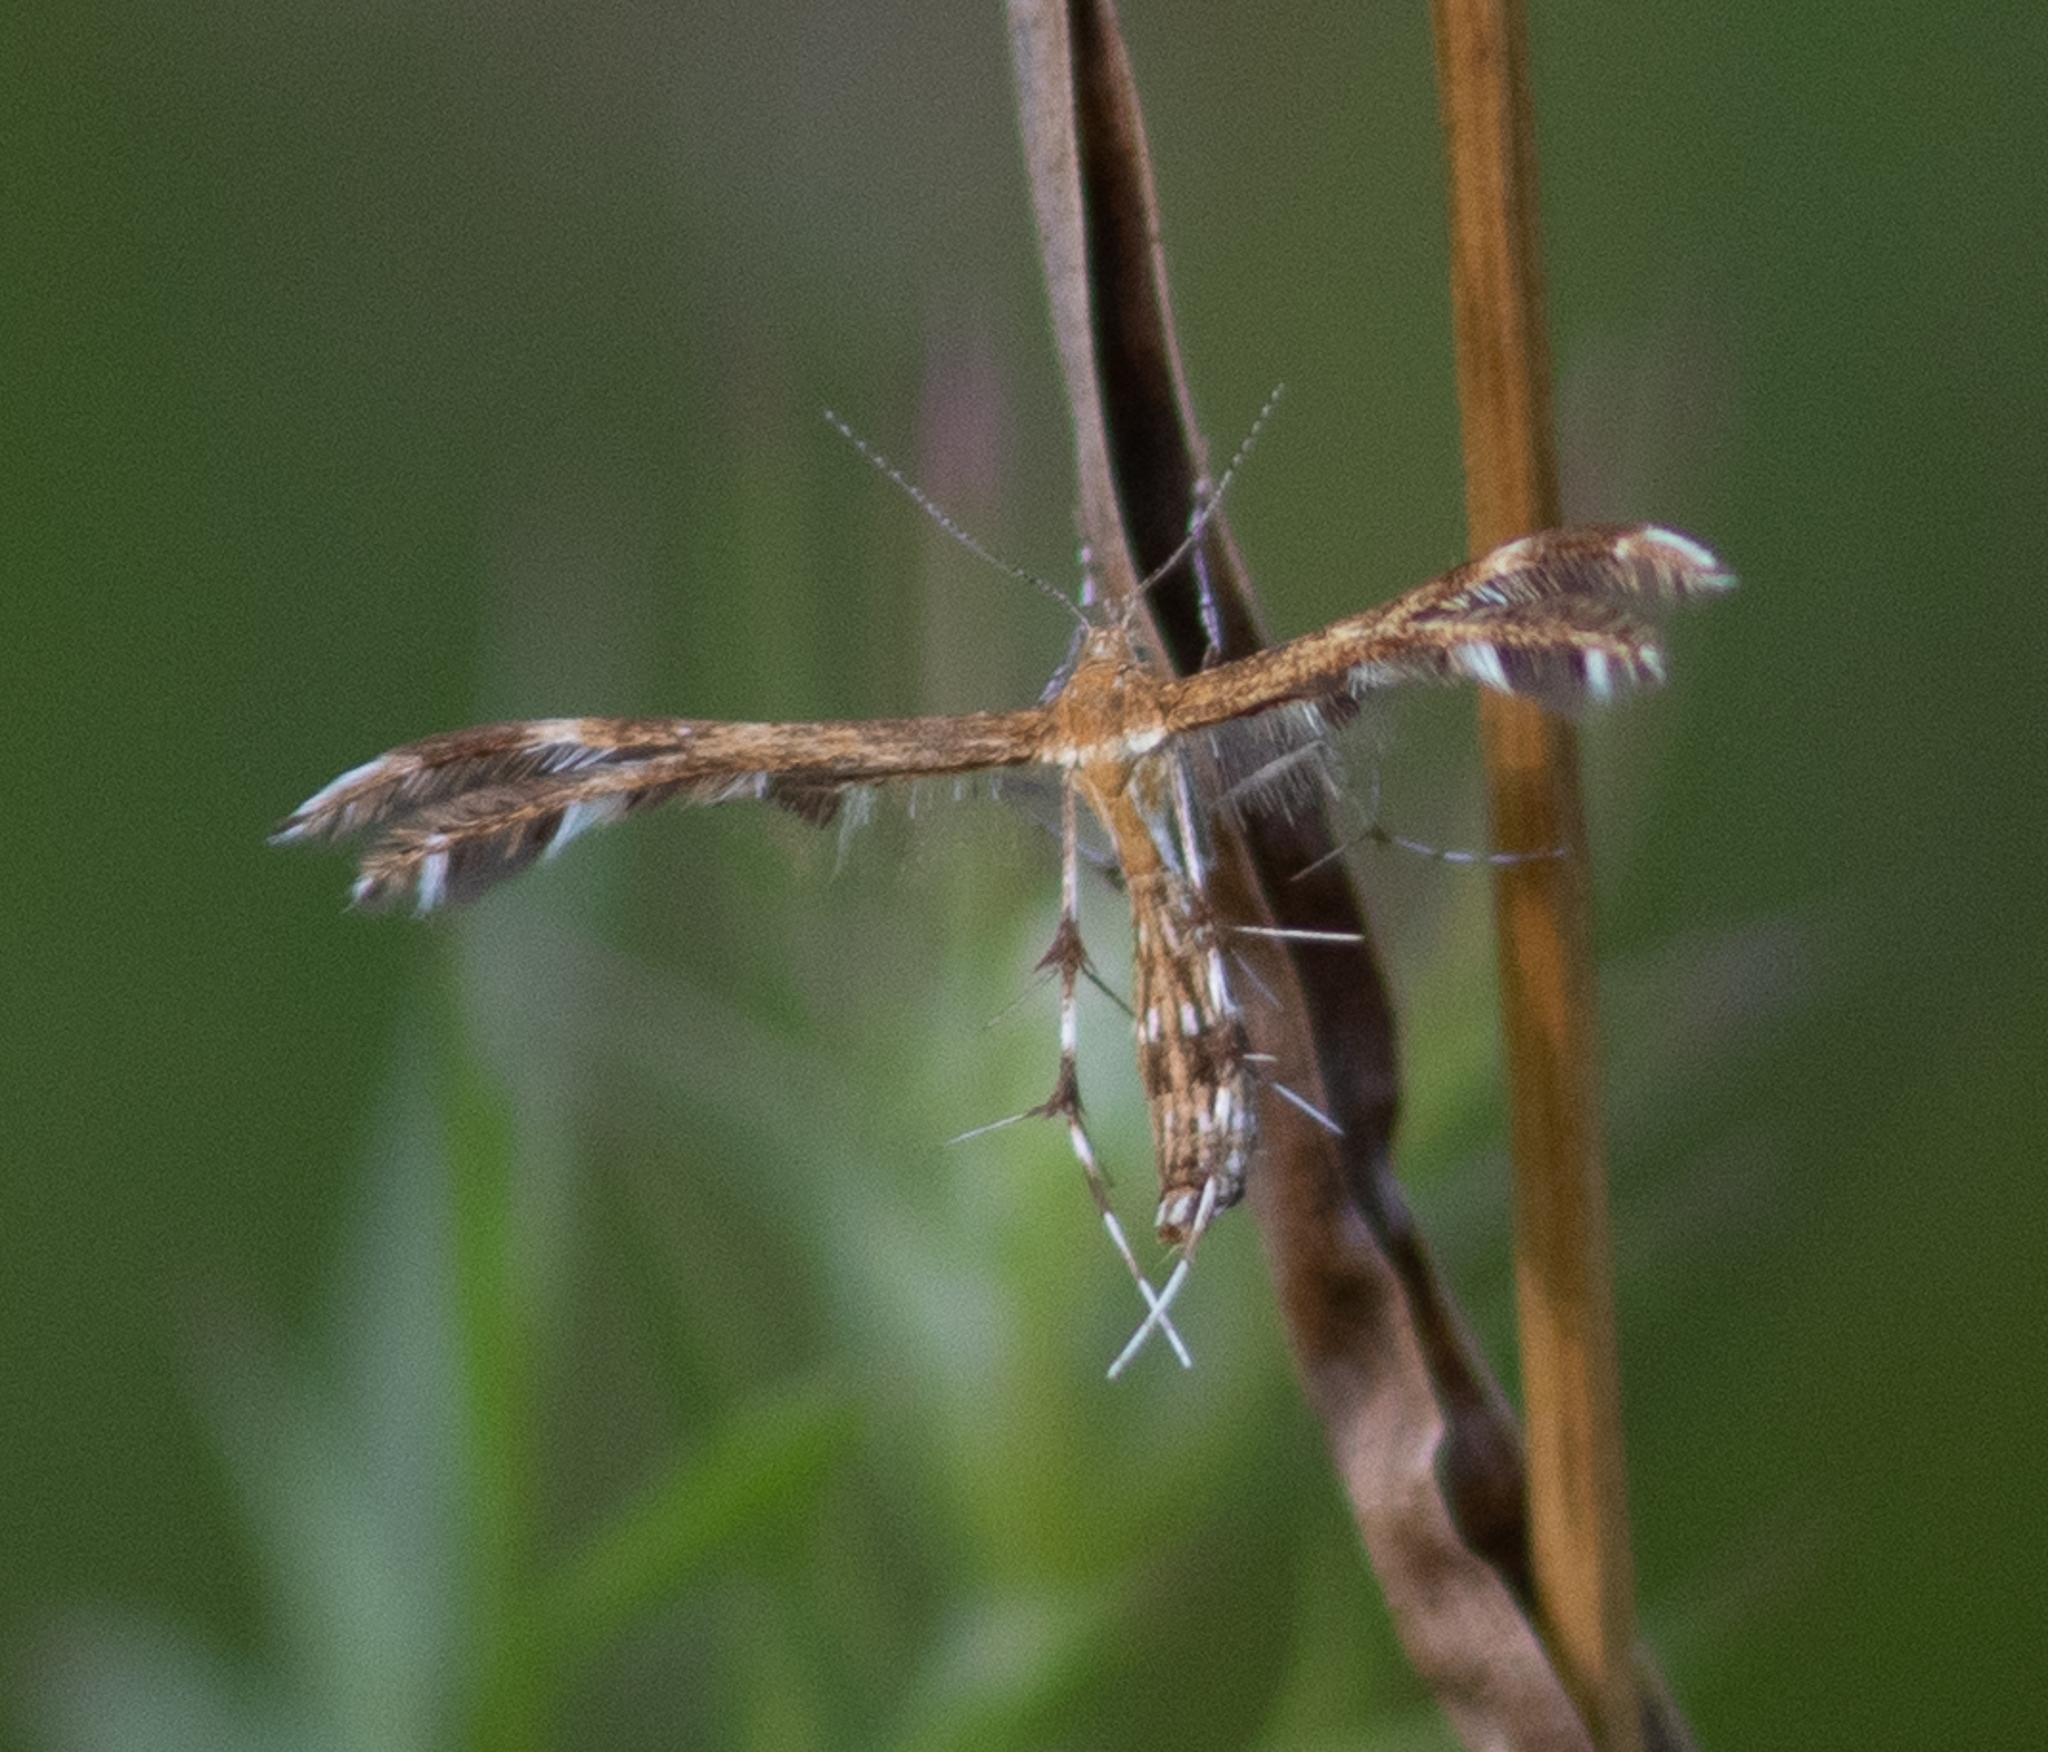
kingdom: Animalia
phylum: Arthropoda
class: Insecta
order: Lepidoptera
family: Pterophoridae
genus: Dejongia
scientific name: Dejongia lobidactylus
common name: Lobed plume moth
